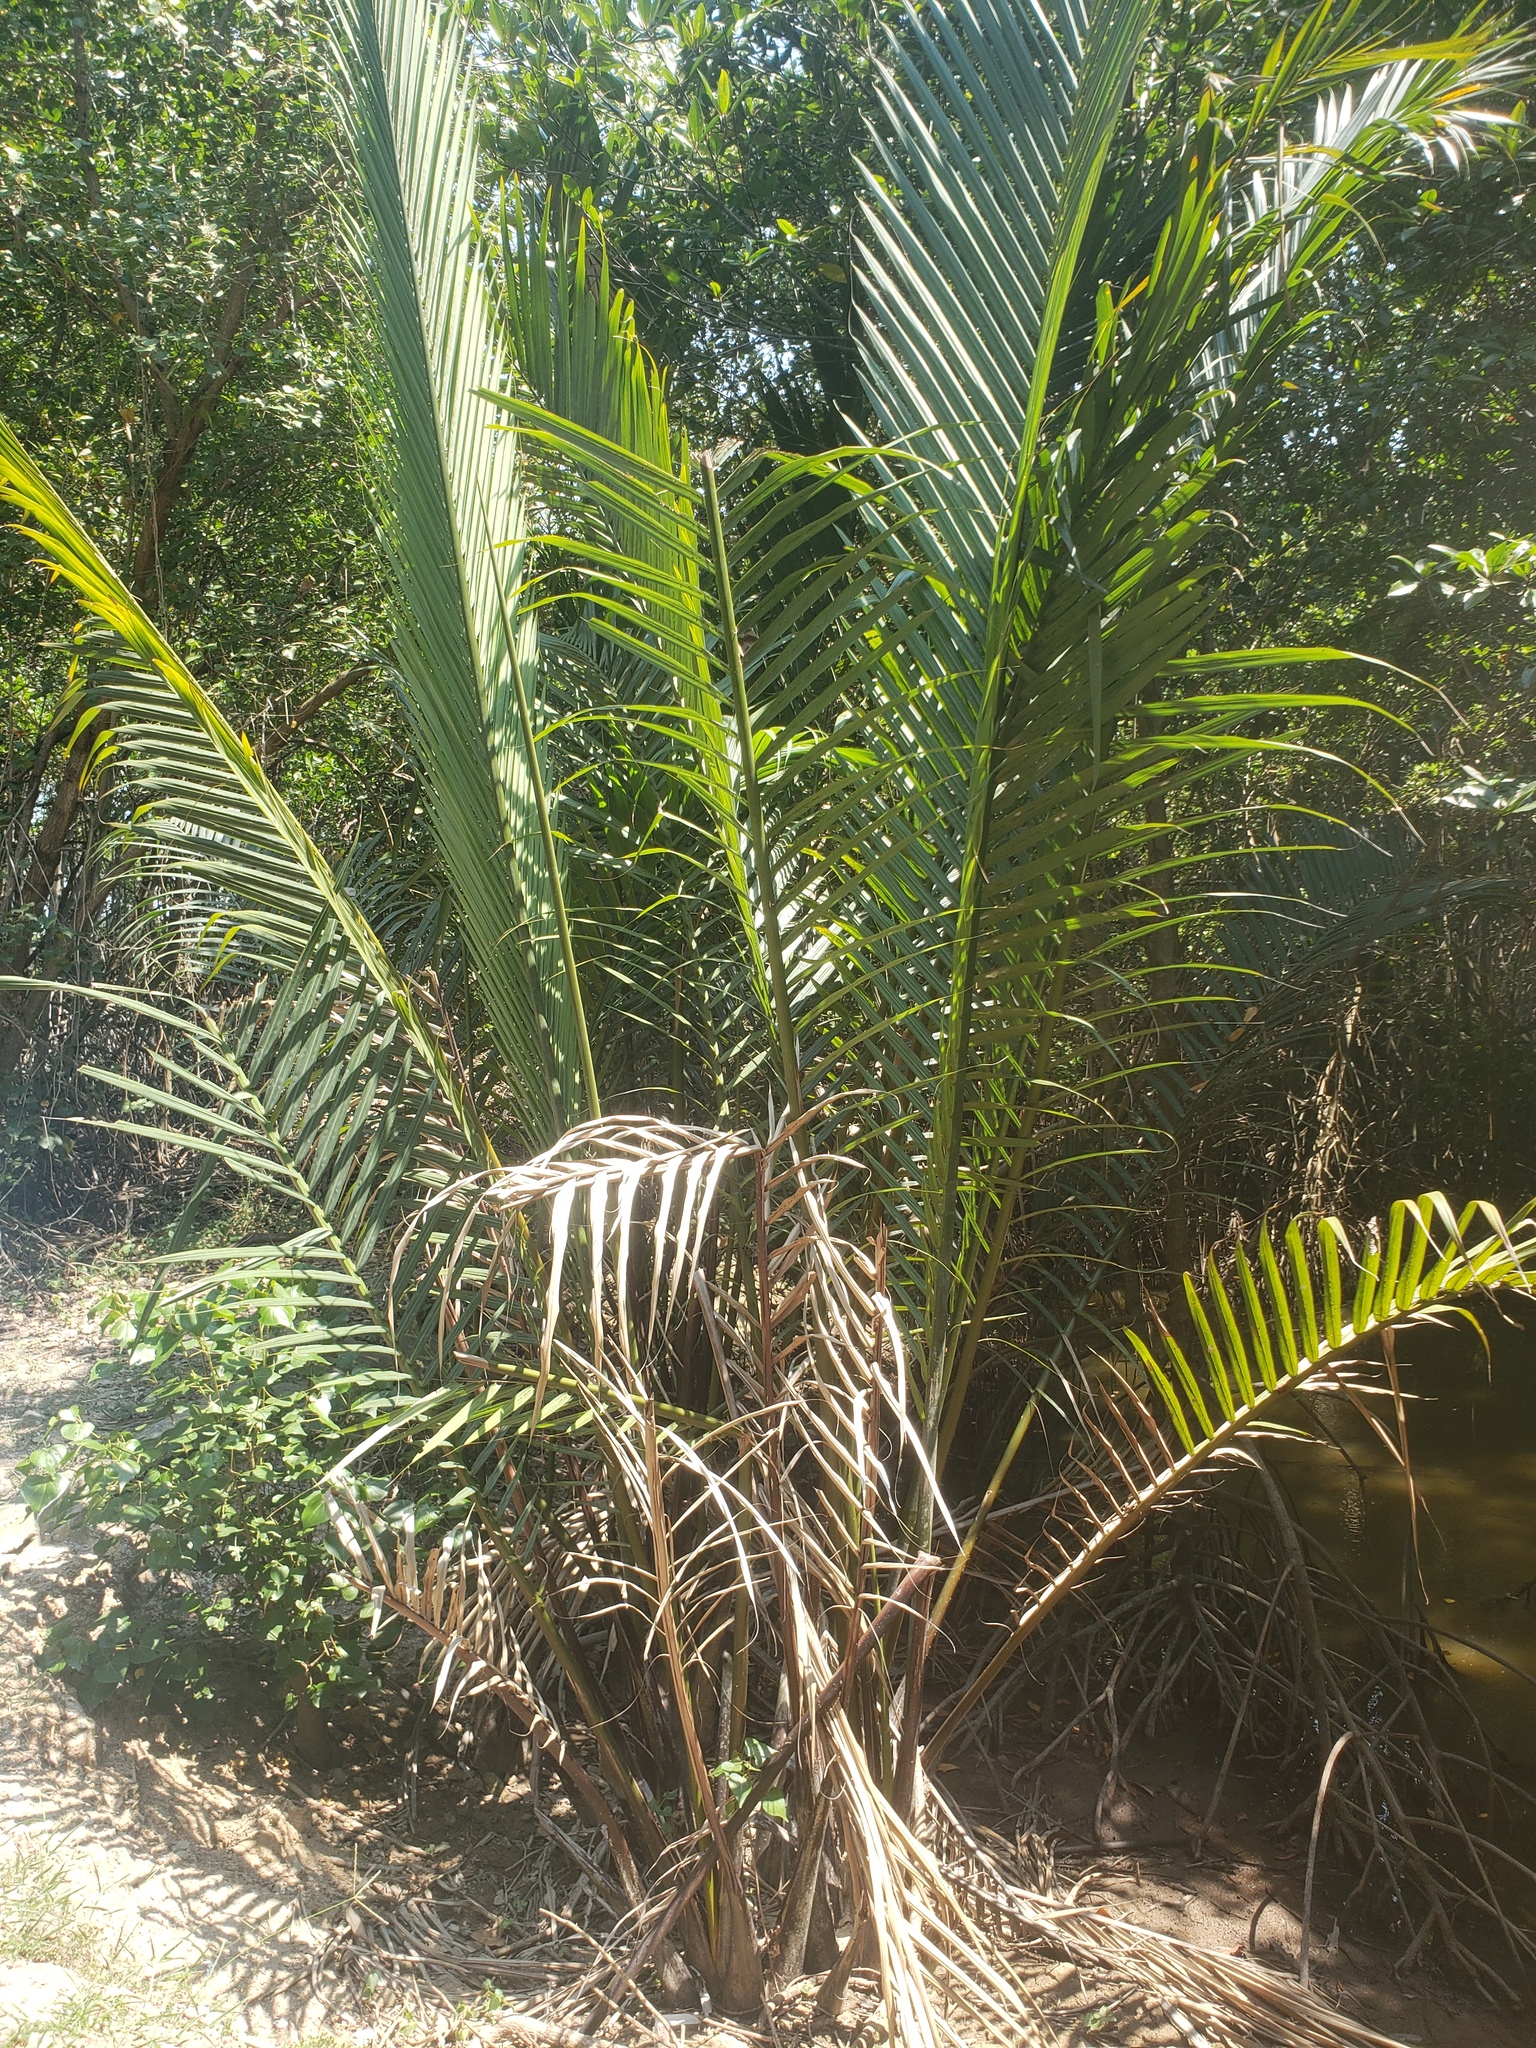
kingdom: Plantae
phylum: Tracheophyta
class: Liliopsida
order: Arecales
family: Arecaceae
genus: Nypa
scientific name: Nypa fruticans
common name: Mangrove palm
